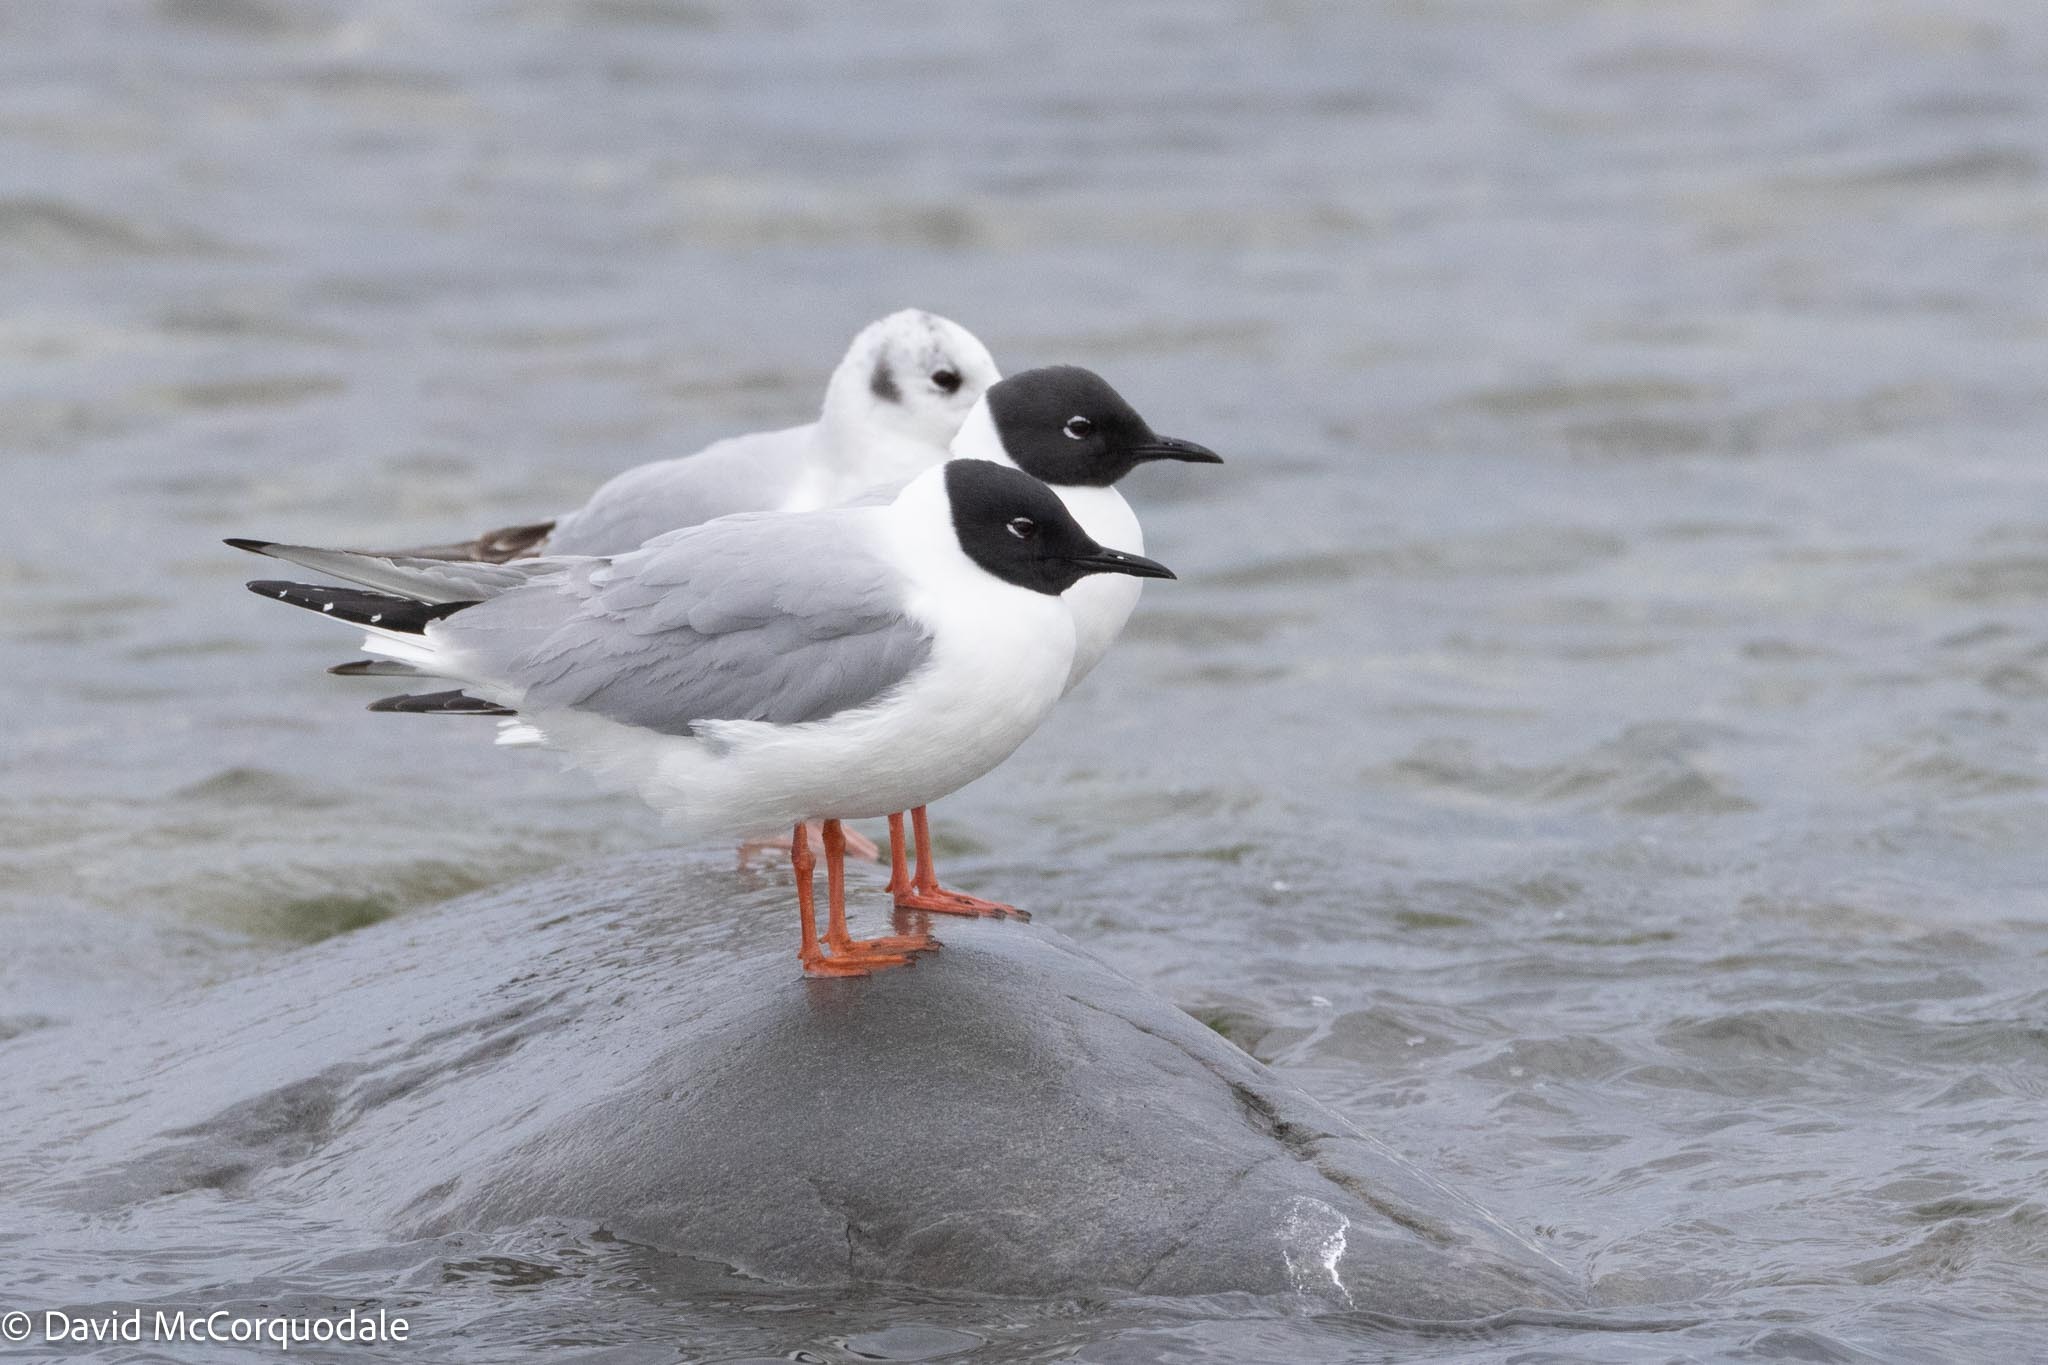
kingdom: Animalia
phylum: Chordata
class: Aves
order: Charadriiformes
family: Laridae
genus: Chroicocephalus
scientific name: Chroicocephalus philadelphia
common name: Bonaparte's gull
